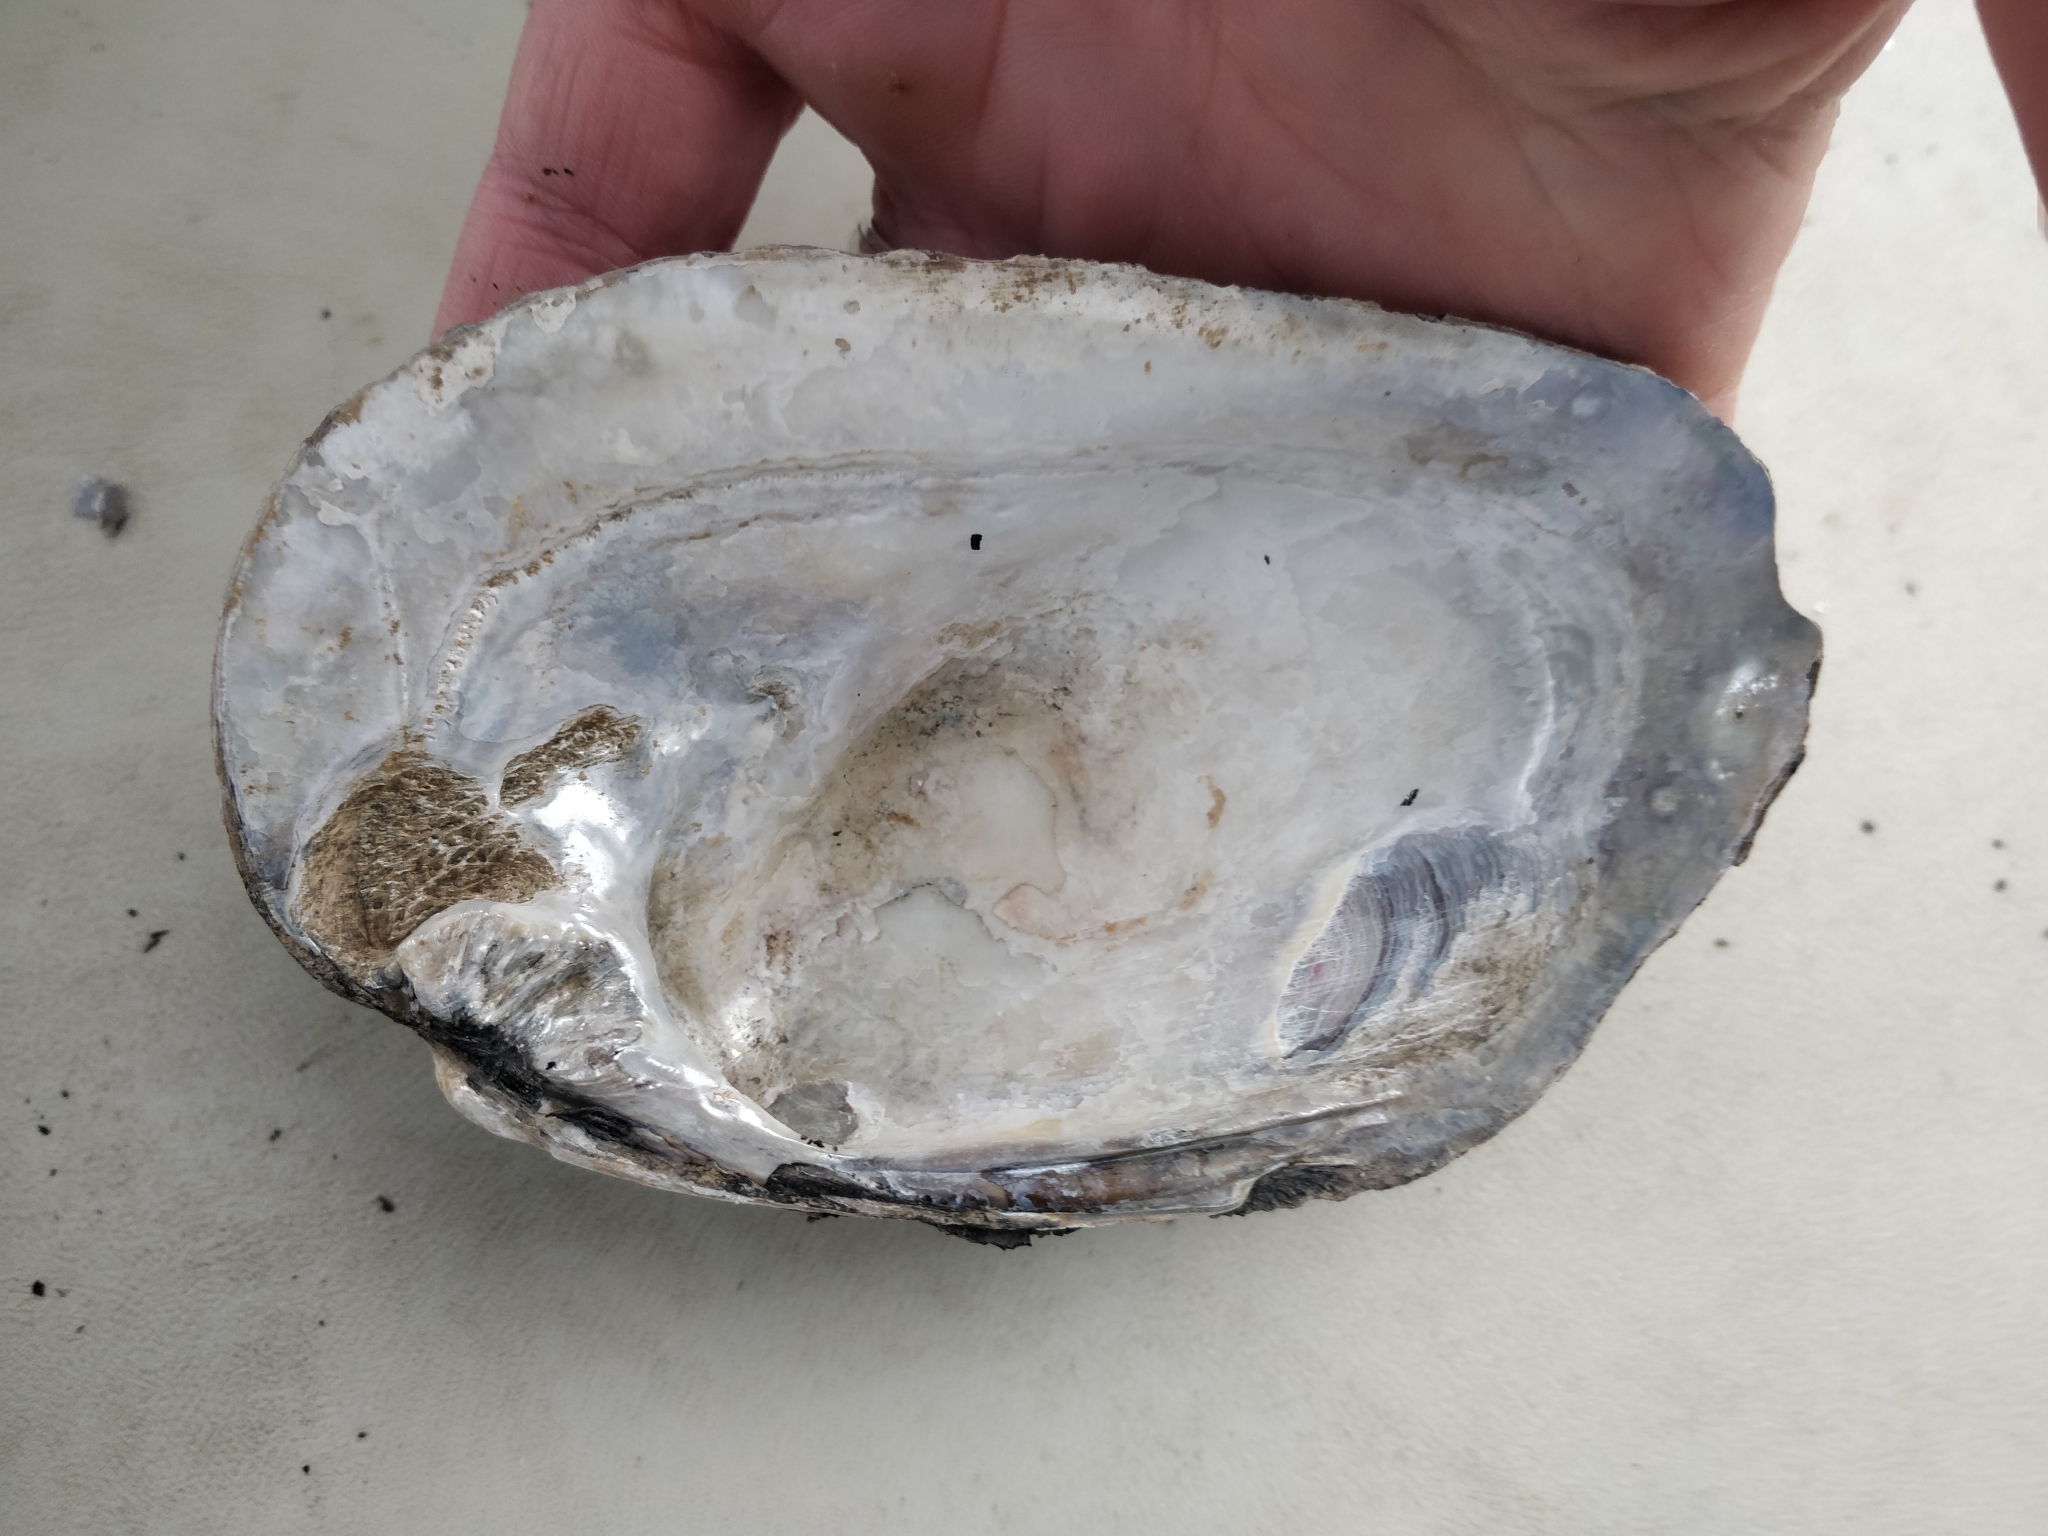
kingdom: Animalia
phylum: Mollusca
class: Bivalvia
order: Unionida
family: Unionidae
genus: Amblema
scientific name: Amblema plicata
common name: Threeridge
